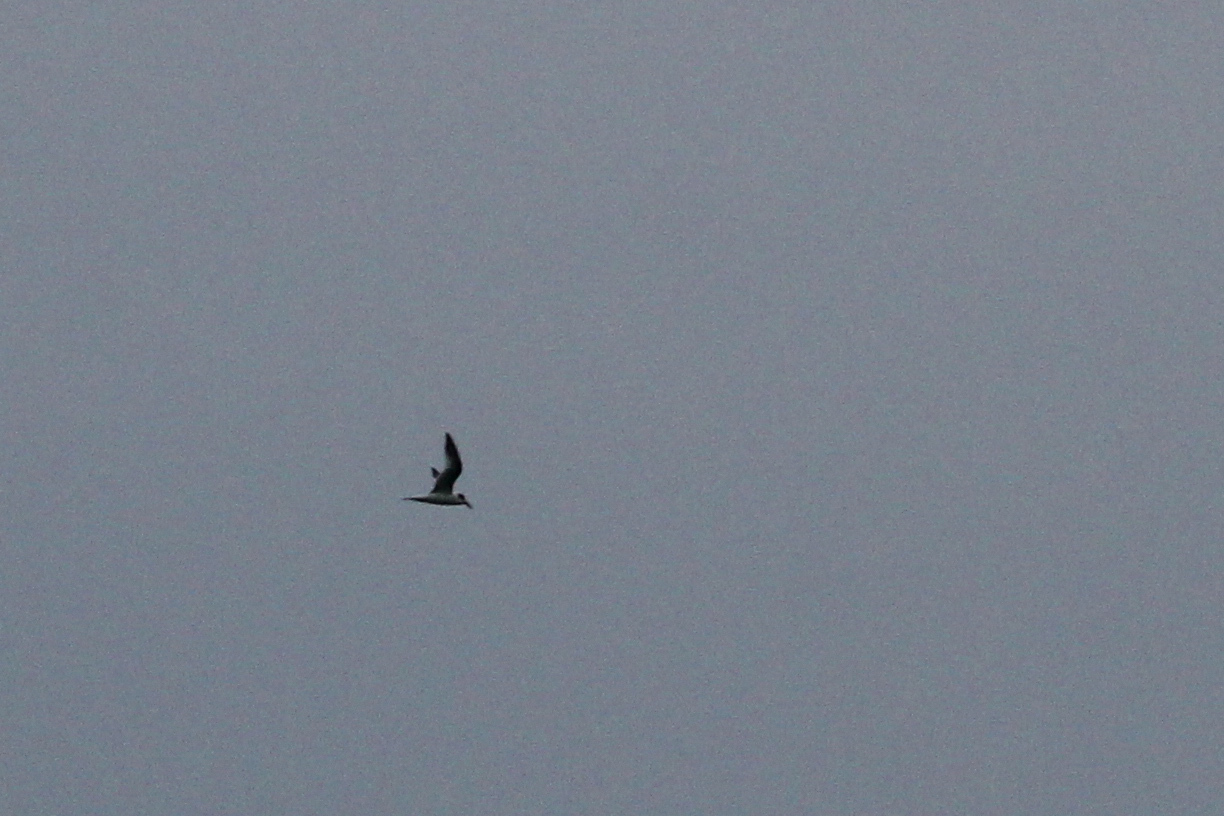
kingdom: Animalia
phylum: Chordata
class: Aves
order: Charadriiformes
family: Laridae
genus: Thalasseus
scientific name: Thalasseus sandvicensis
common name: Sandwich tern
